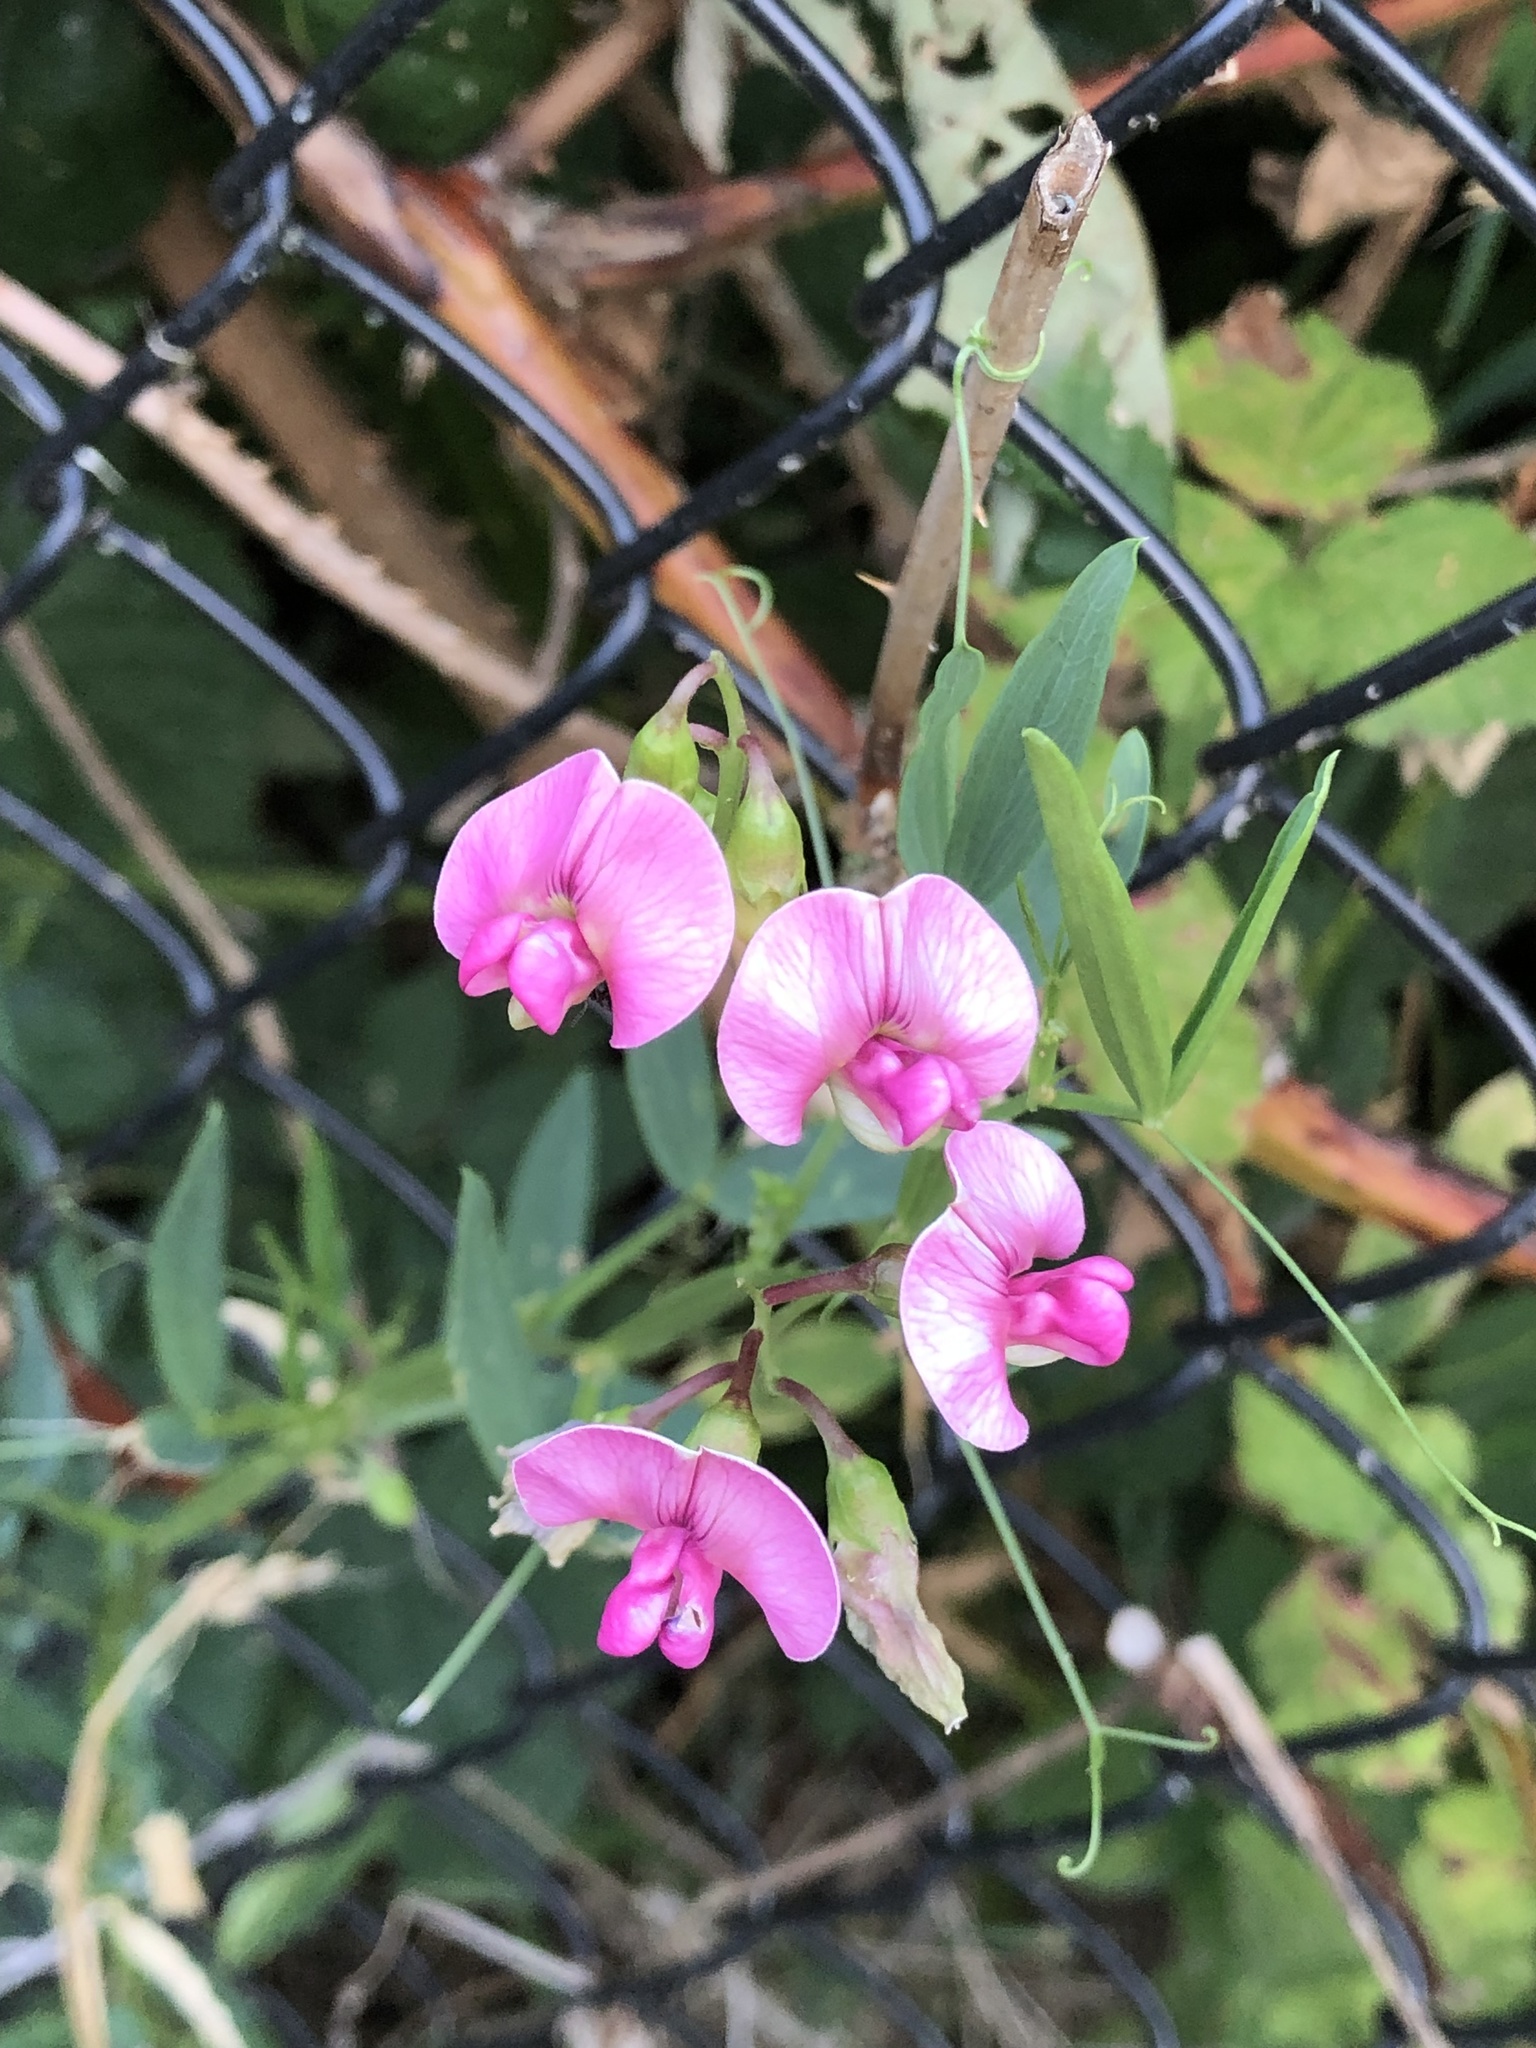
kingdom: Plantae
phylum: Tracheophyta
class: Magnoliopsida
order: Fabales
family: Fabaceae
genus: Lathyrus
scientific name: Lathyrus latifolius
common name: Perennial pea
